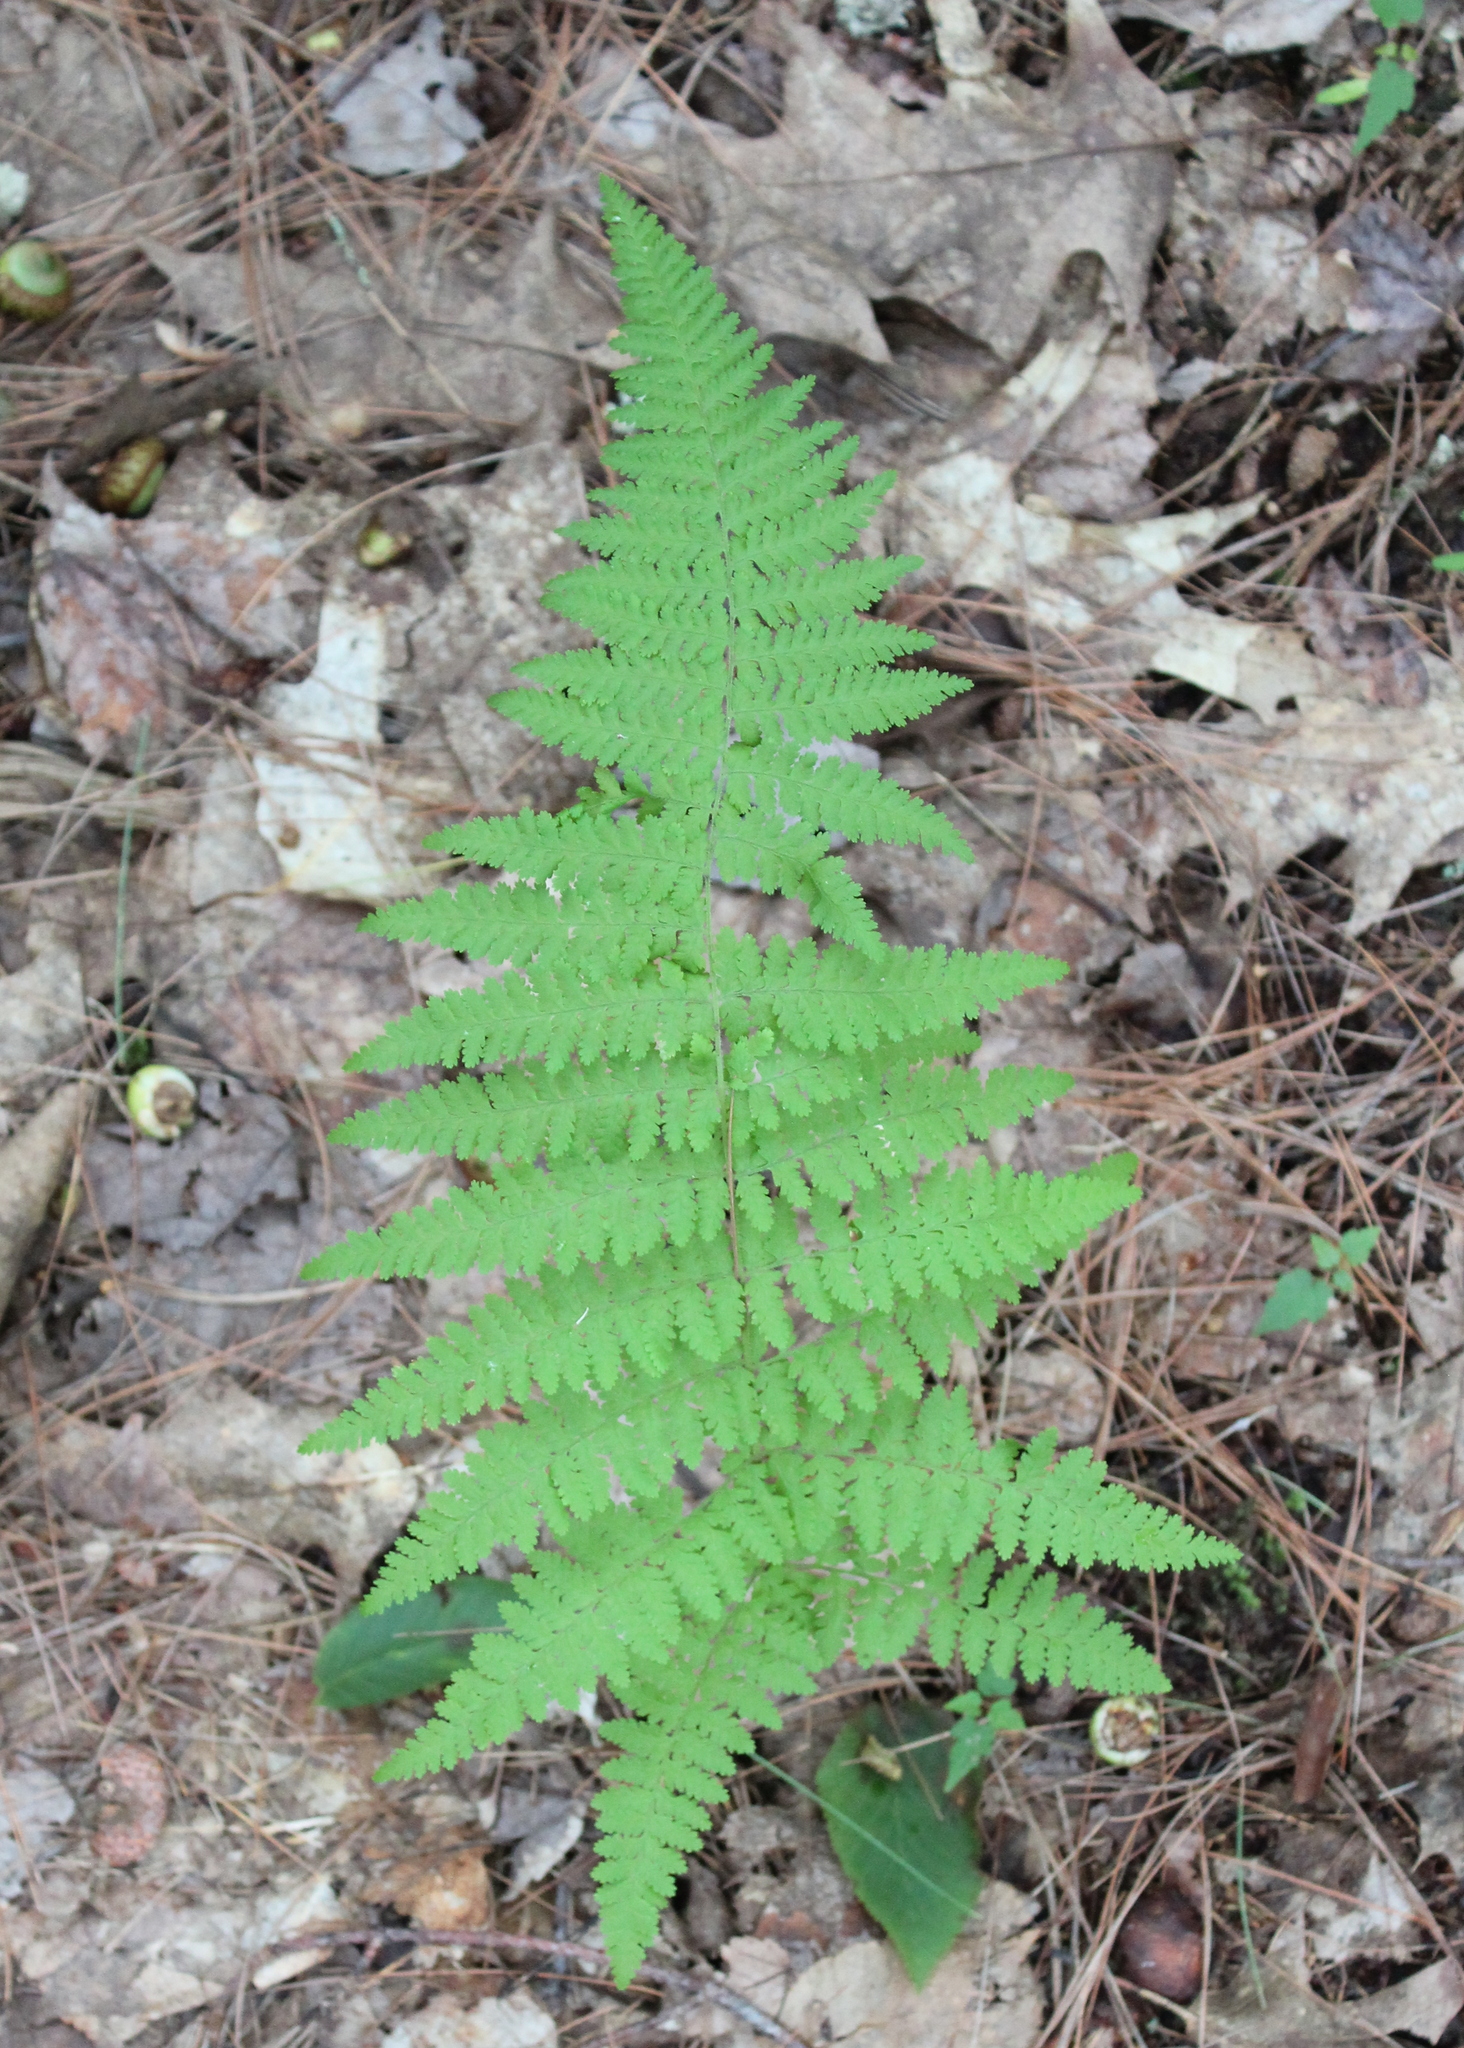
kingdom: Plantae
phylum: Tracheophyta
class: Polypodiopsida
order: Polypodiales
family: Dennstaedtiaceae
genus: Sitobolium
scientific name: Sitobolium punctilobum
